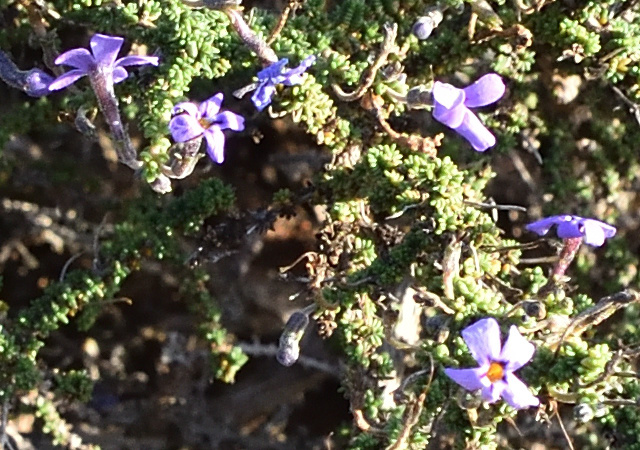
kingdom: Plantae
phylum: Tracheophyta
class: Magnoliopsida
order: Lamiales
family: Scrophulariaceae
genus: Jamesbrittenia
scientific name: Jamesbrittenia microphylla
